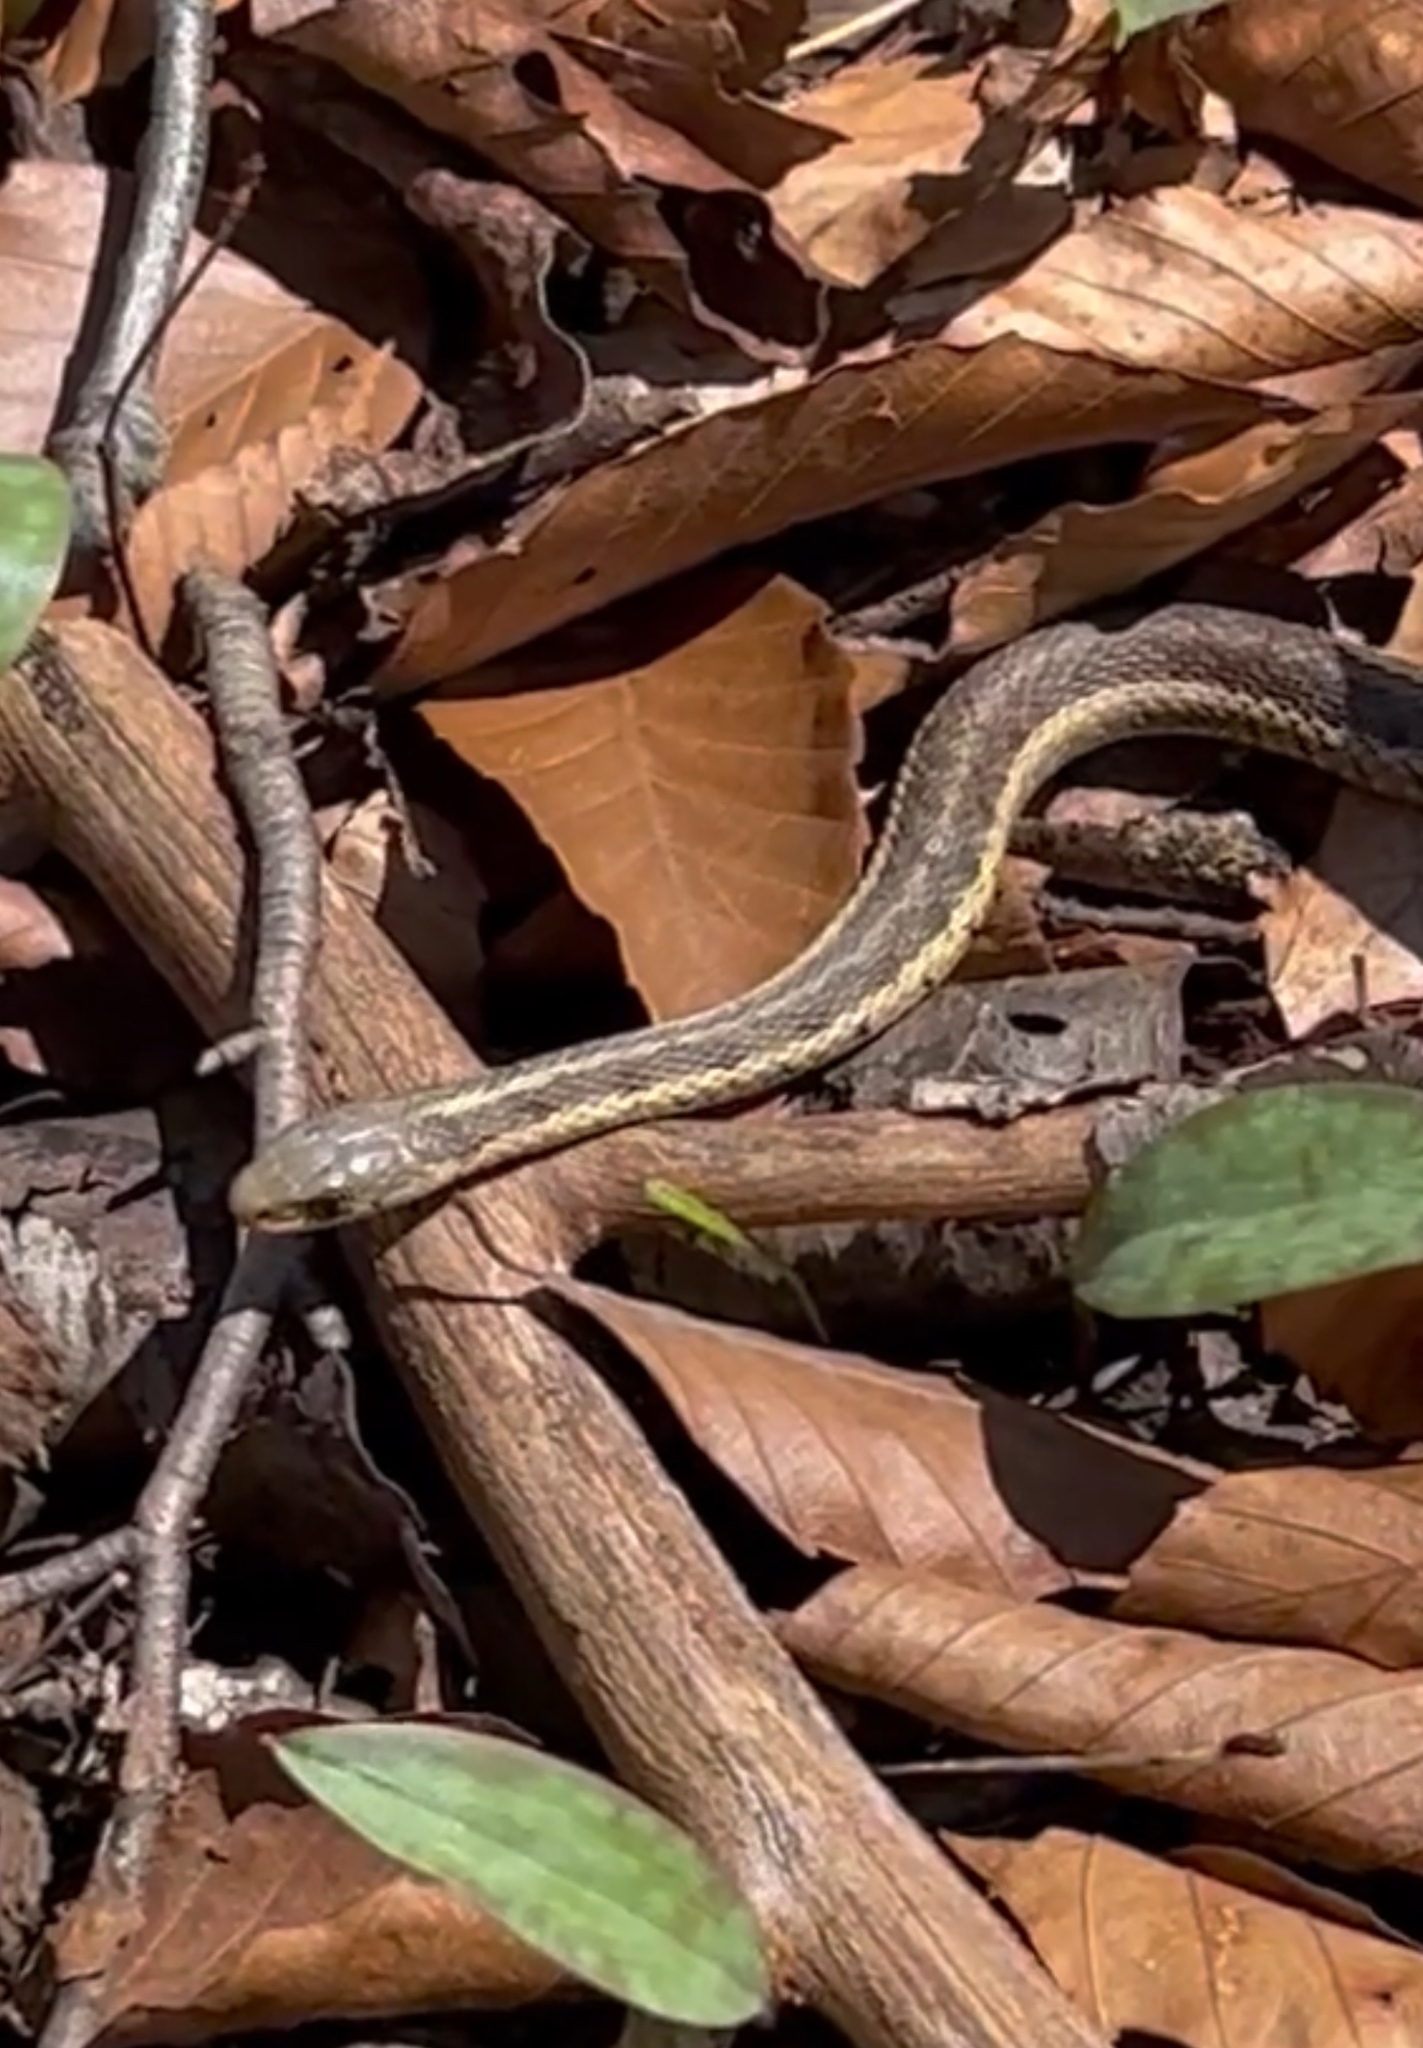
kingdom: Animalia
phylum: Chordata
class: Squamata
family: Colubridae
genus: Thamnophis
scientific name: Thamnophis sirtalis
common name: Common garter snake
